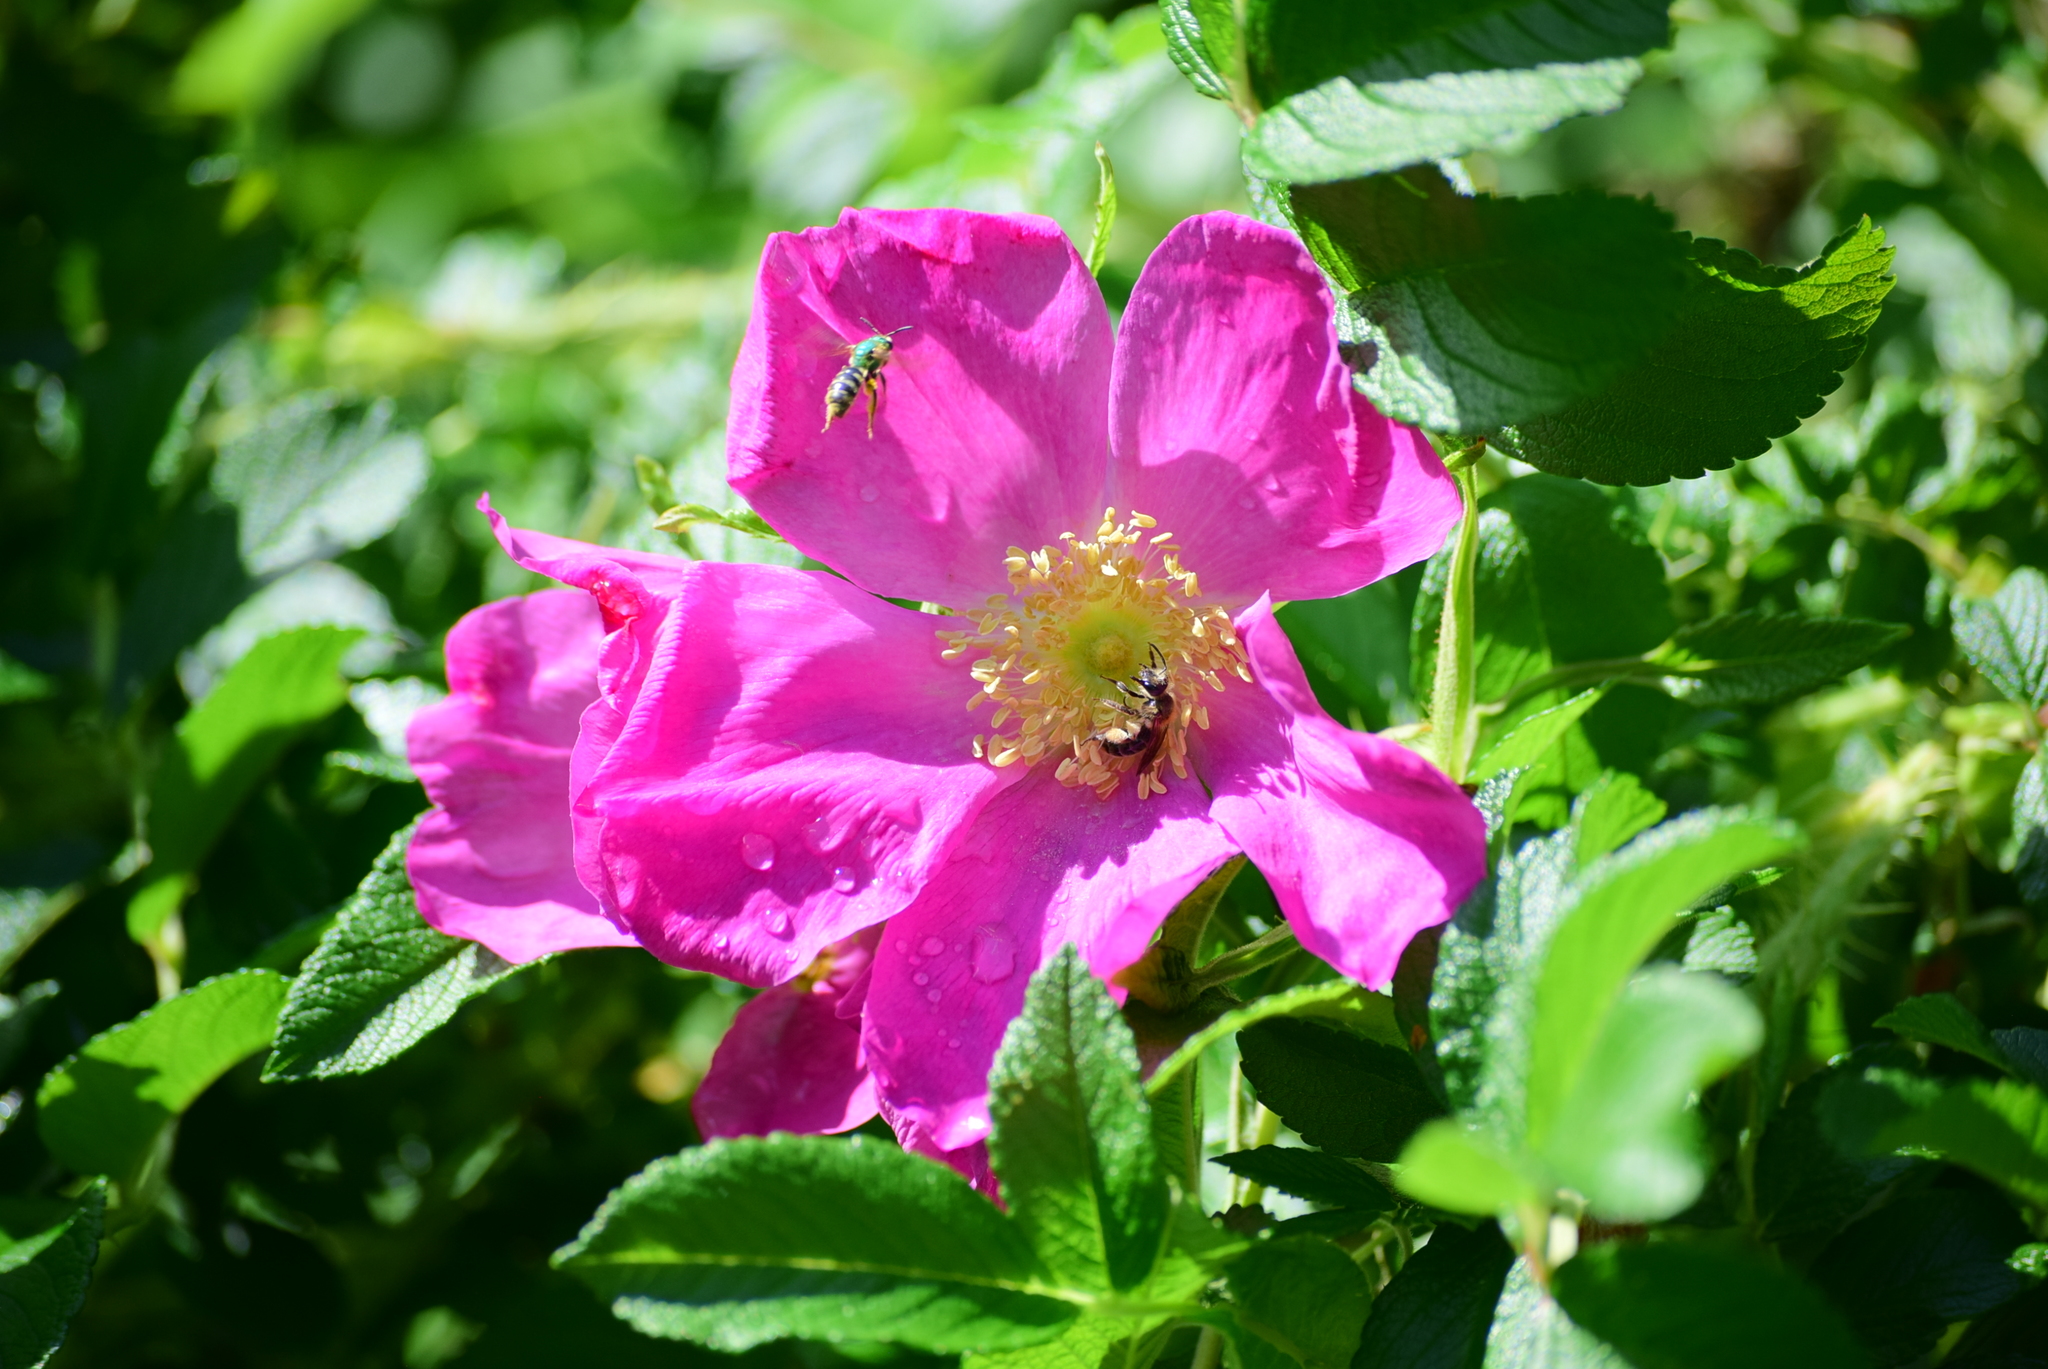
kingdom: Animalia
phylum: Arthropoda
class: Insecta
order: Hymenoptera
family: Halictidae
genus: Agapostemon
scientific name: Agapostemon virescens
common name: Bicolored striped sweat bee
